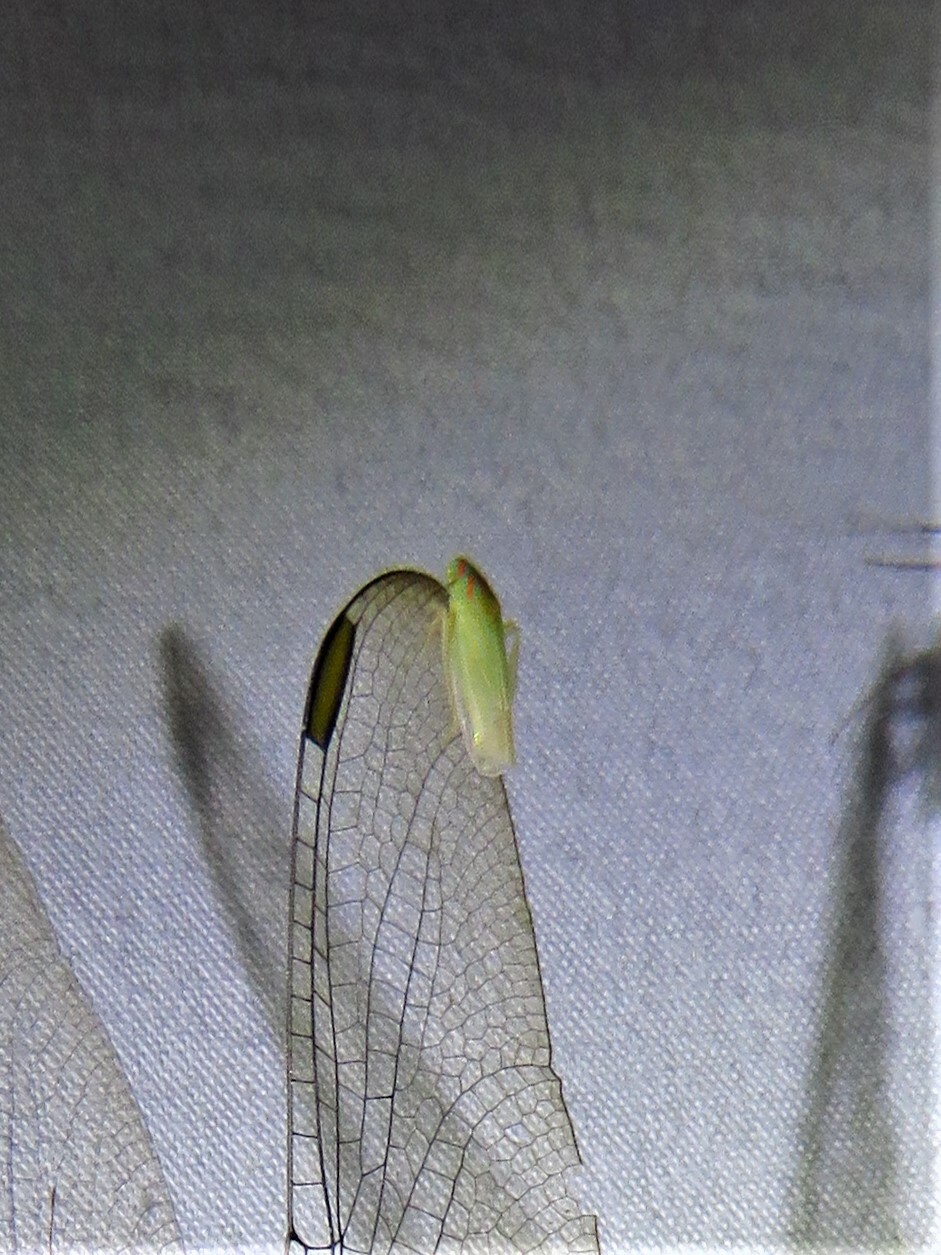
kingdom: Animalia
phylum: Arthropoda
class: Insecta
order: Hemiptera
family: Cicadellidae
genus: Spangbergiella
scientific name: Spangbergiella vulnerata
